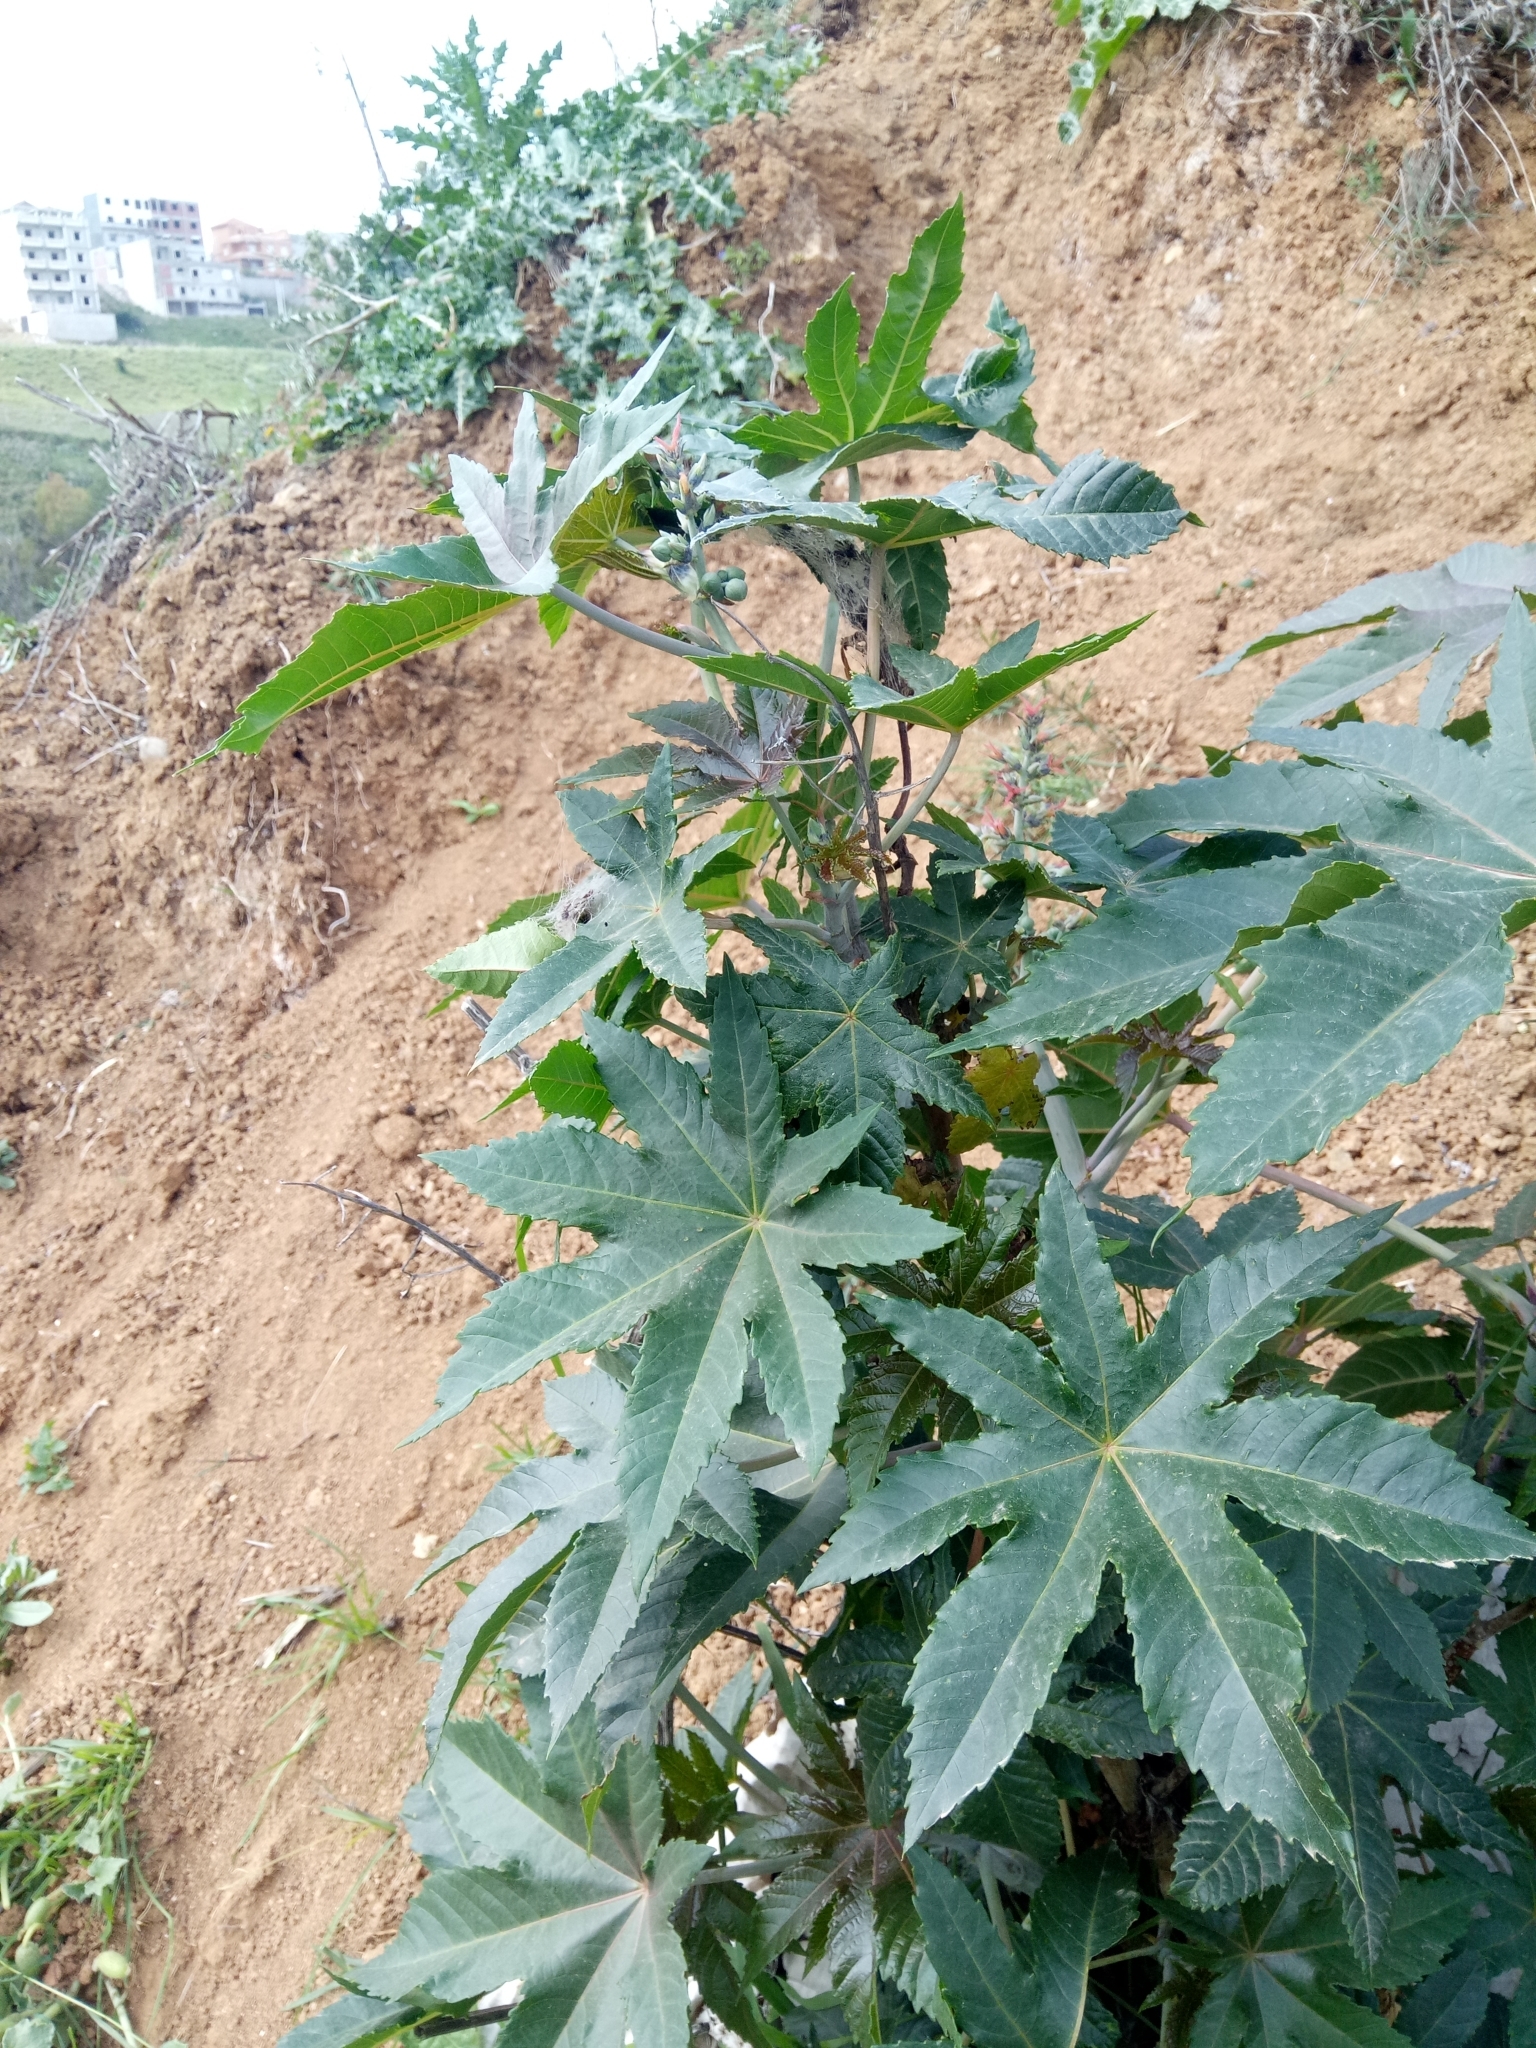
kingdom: Plantae
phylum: Tracheophyta
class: Magnoliopsida
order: Malpighiales
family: Euphorbiaceae
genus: Ricinus
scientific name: Ricinus communis
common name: Castor-oil-plant
